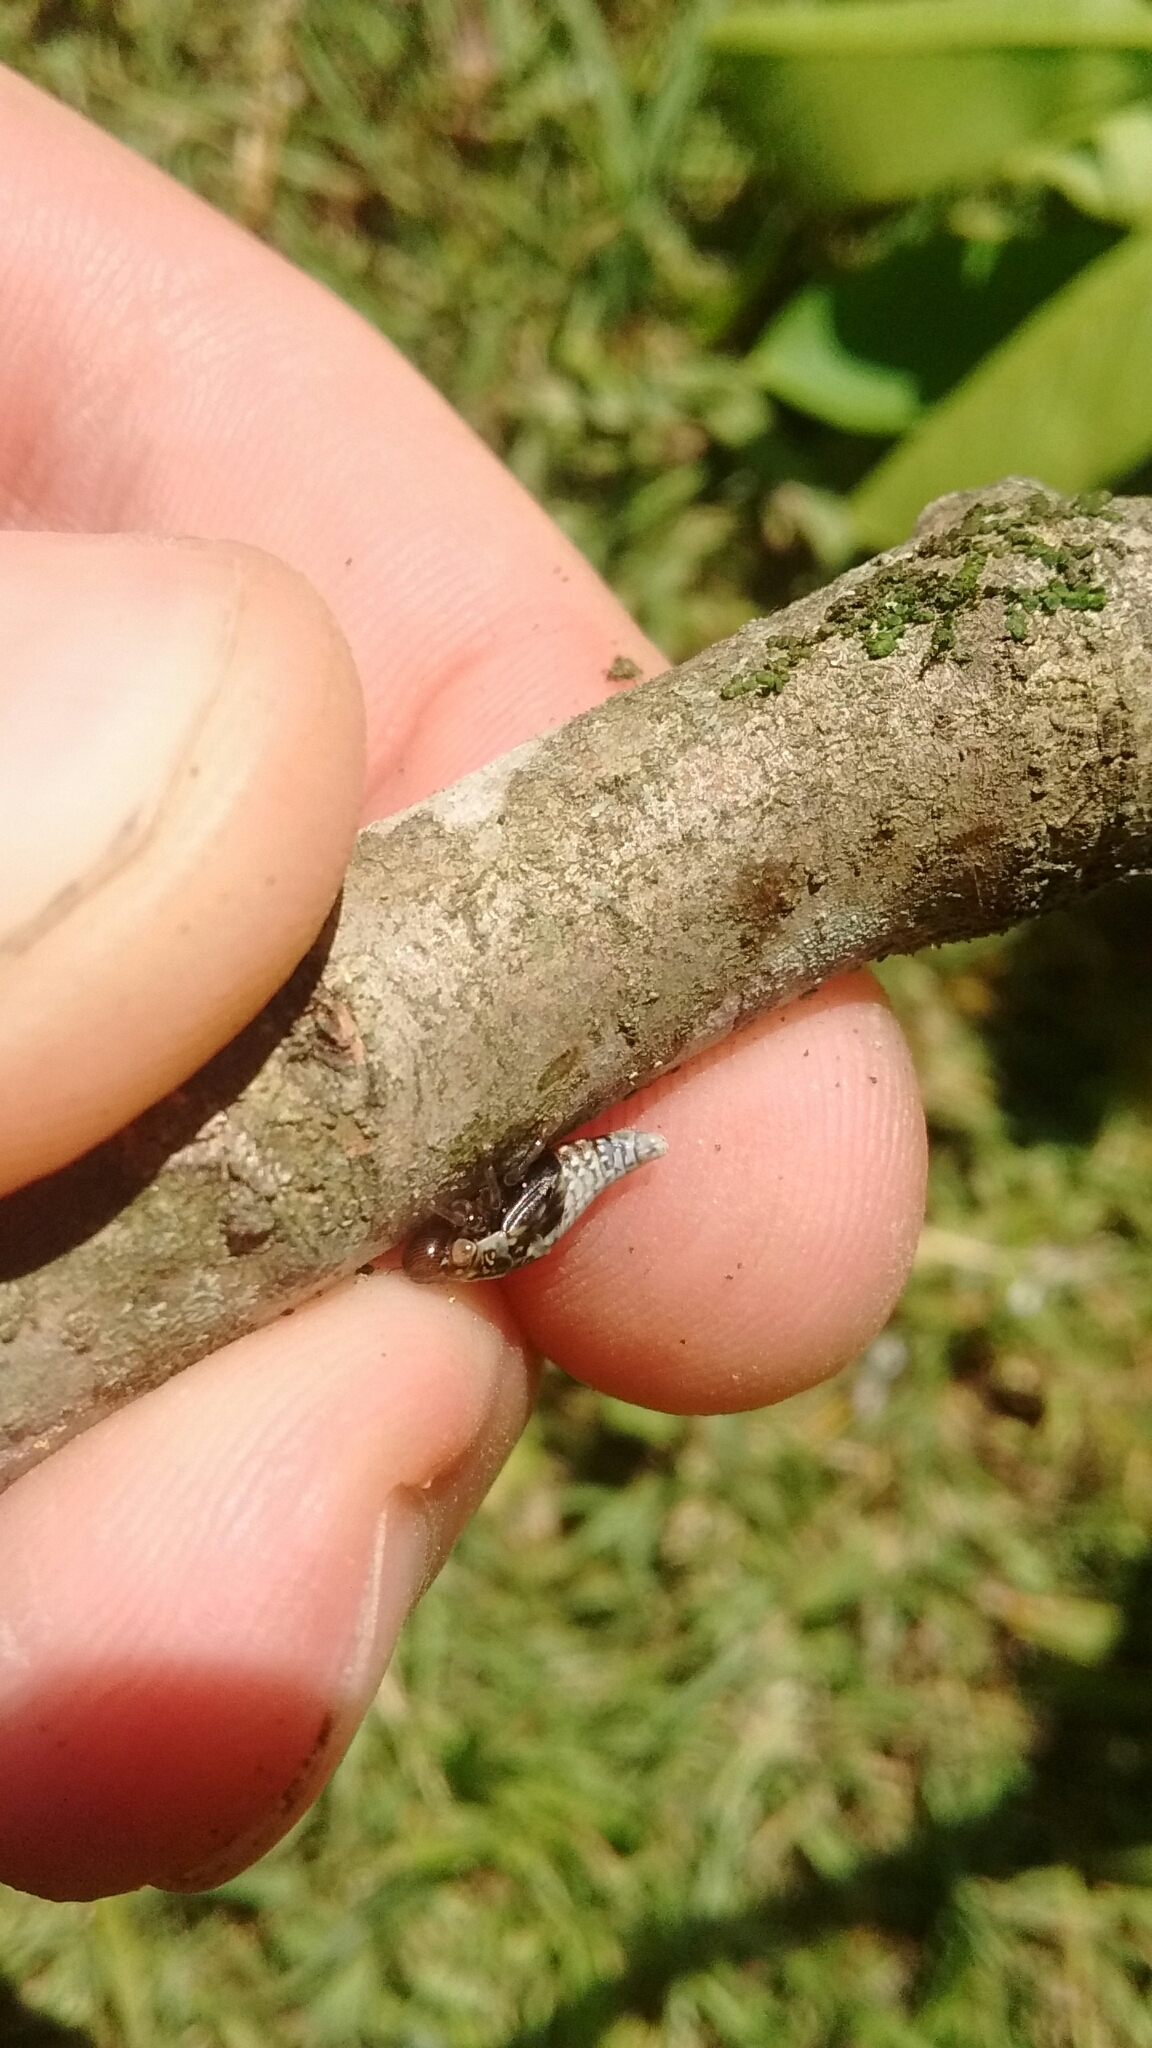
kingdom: Animalia
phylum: Arthropoda
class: Insecta
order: Hemiptera
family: Aphrophoridae
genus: Cephisus
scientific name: Cephisus siccifolius
